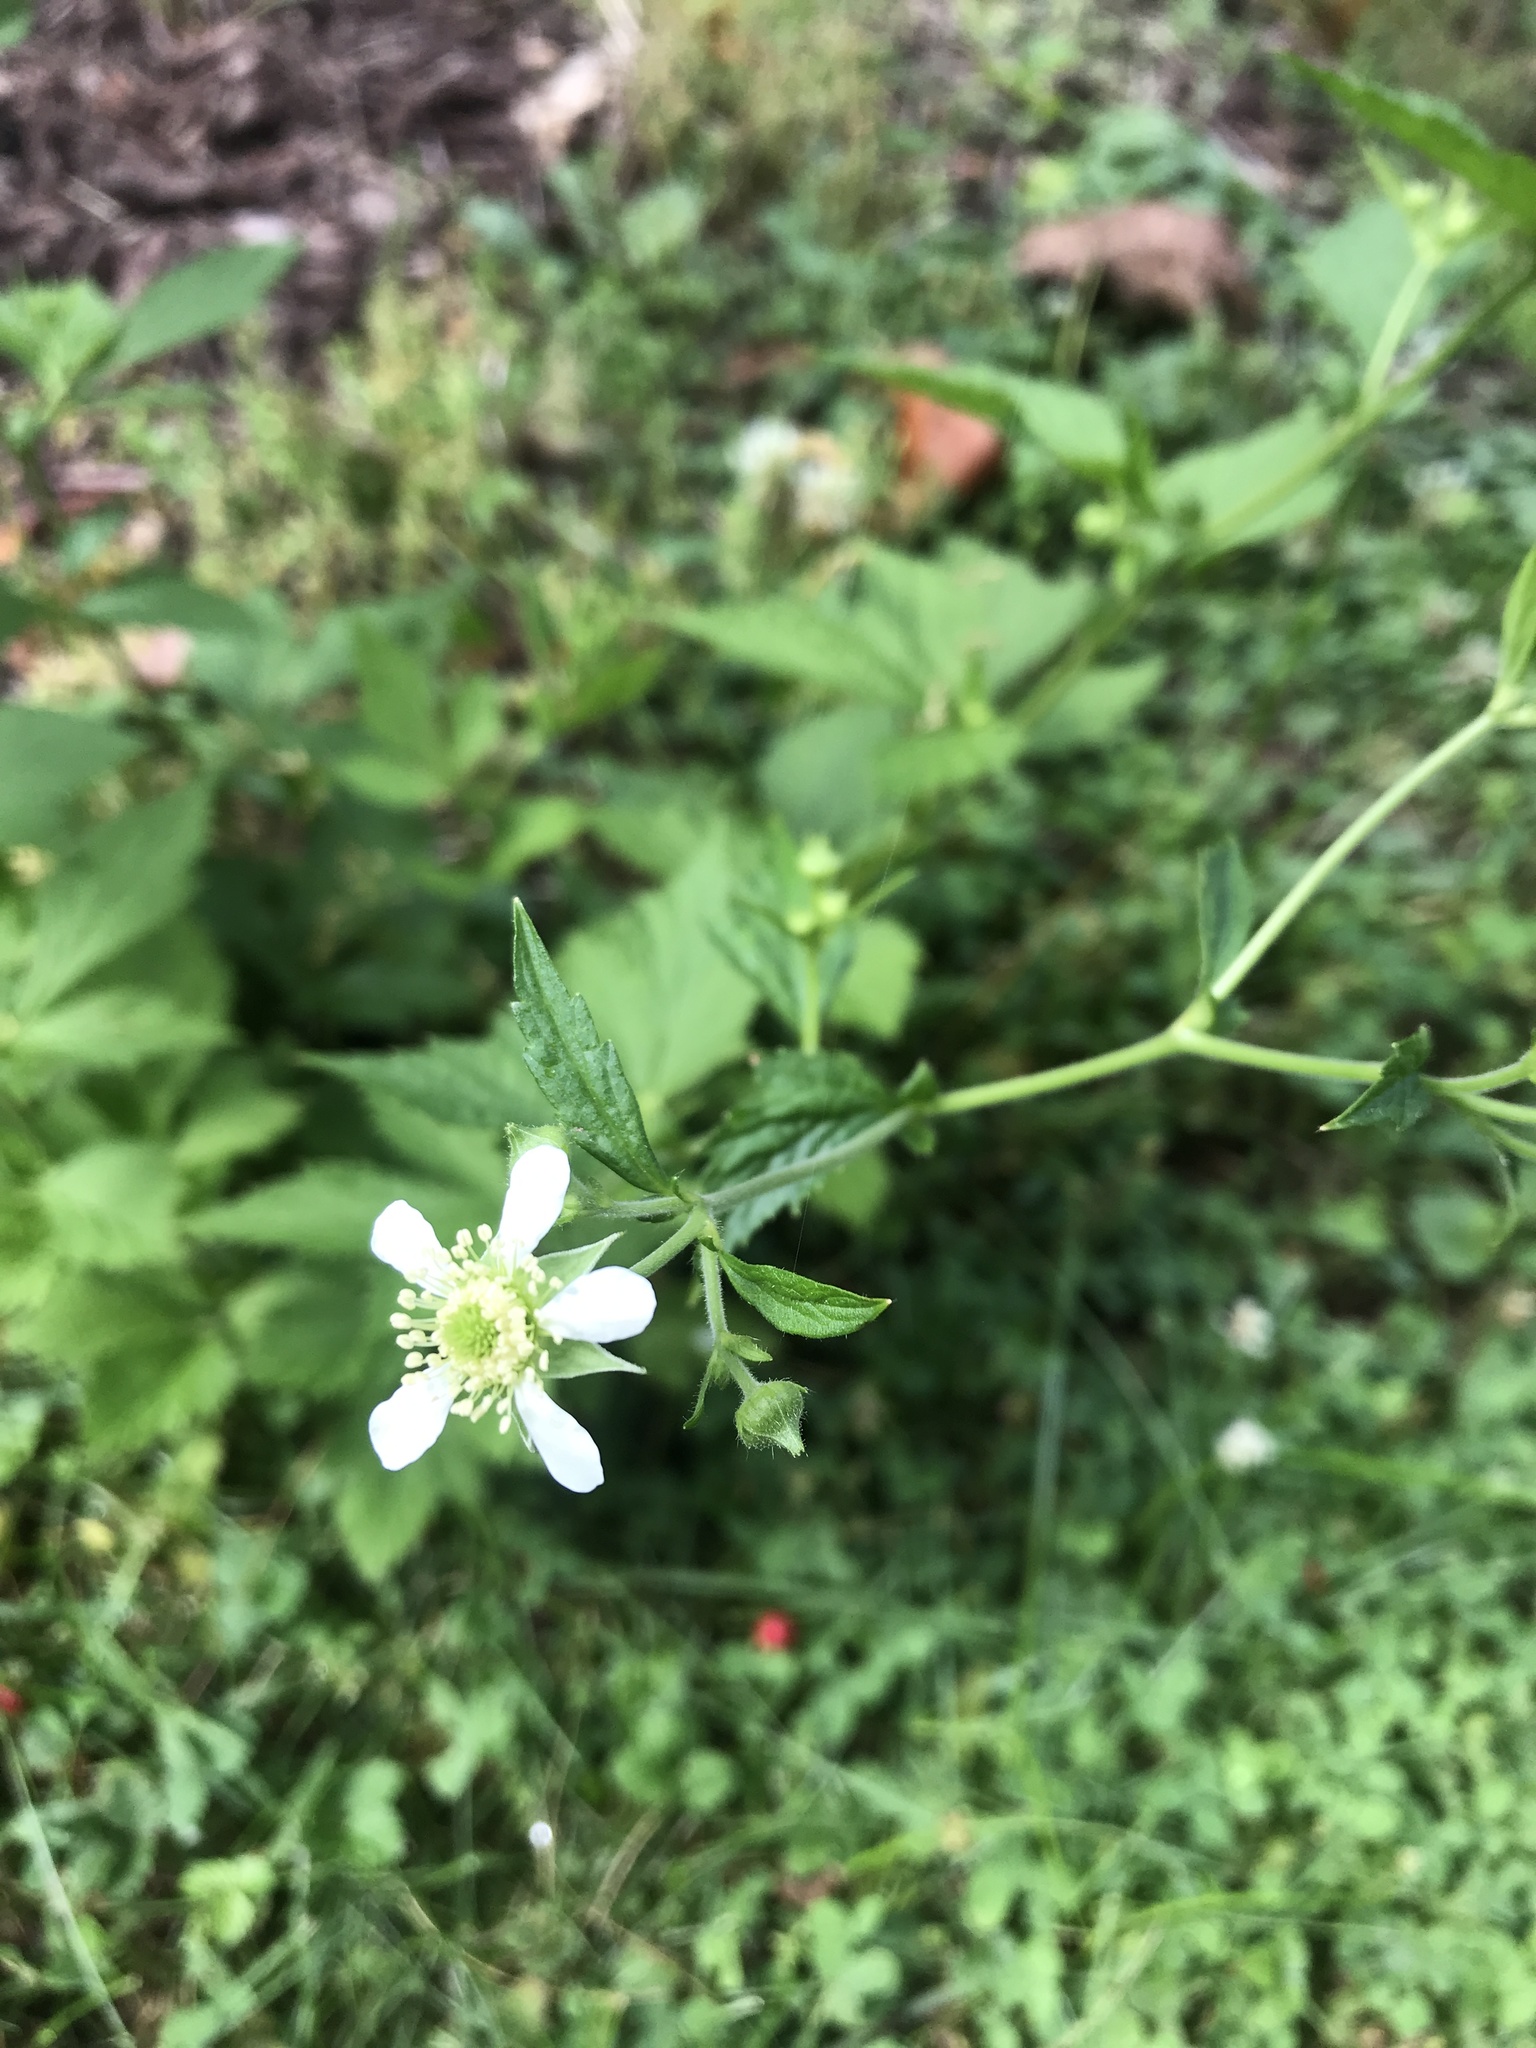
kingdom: Plantae
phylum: Tracheophyta
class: Magnoliopsida
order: Rosales
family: Rosaceae
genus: Geum
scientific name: Geum canadense
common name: White avens
